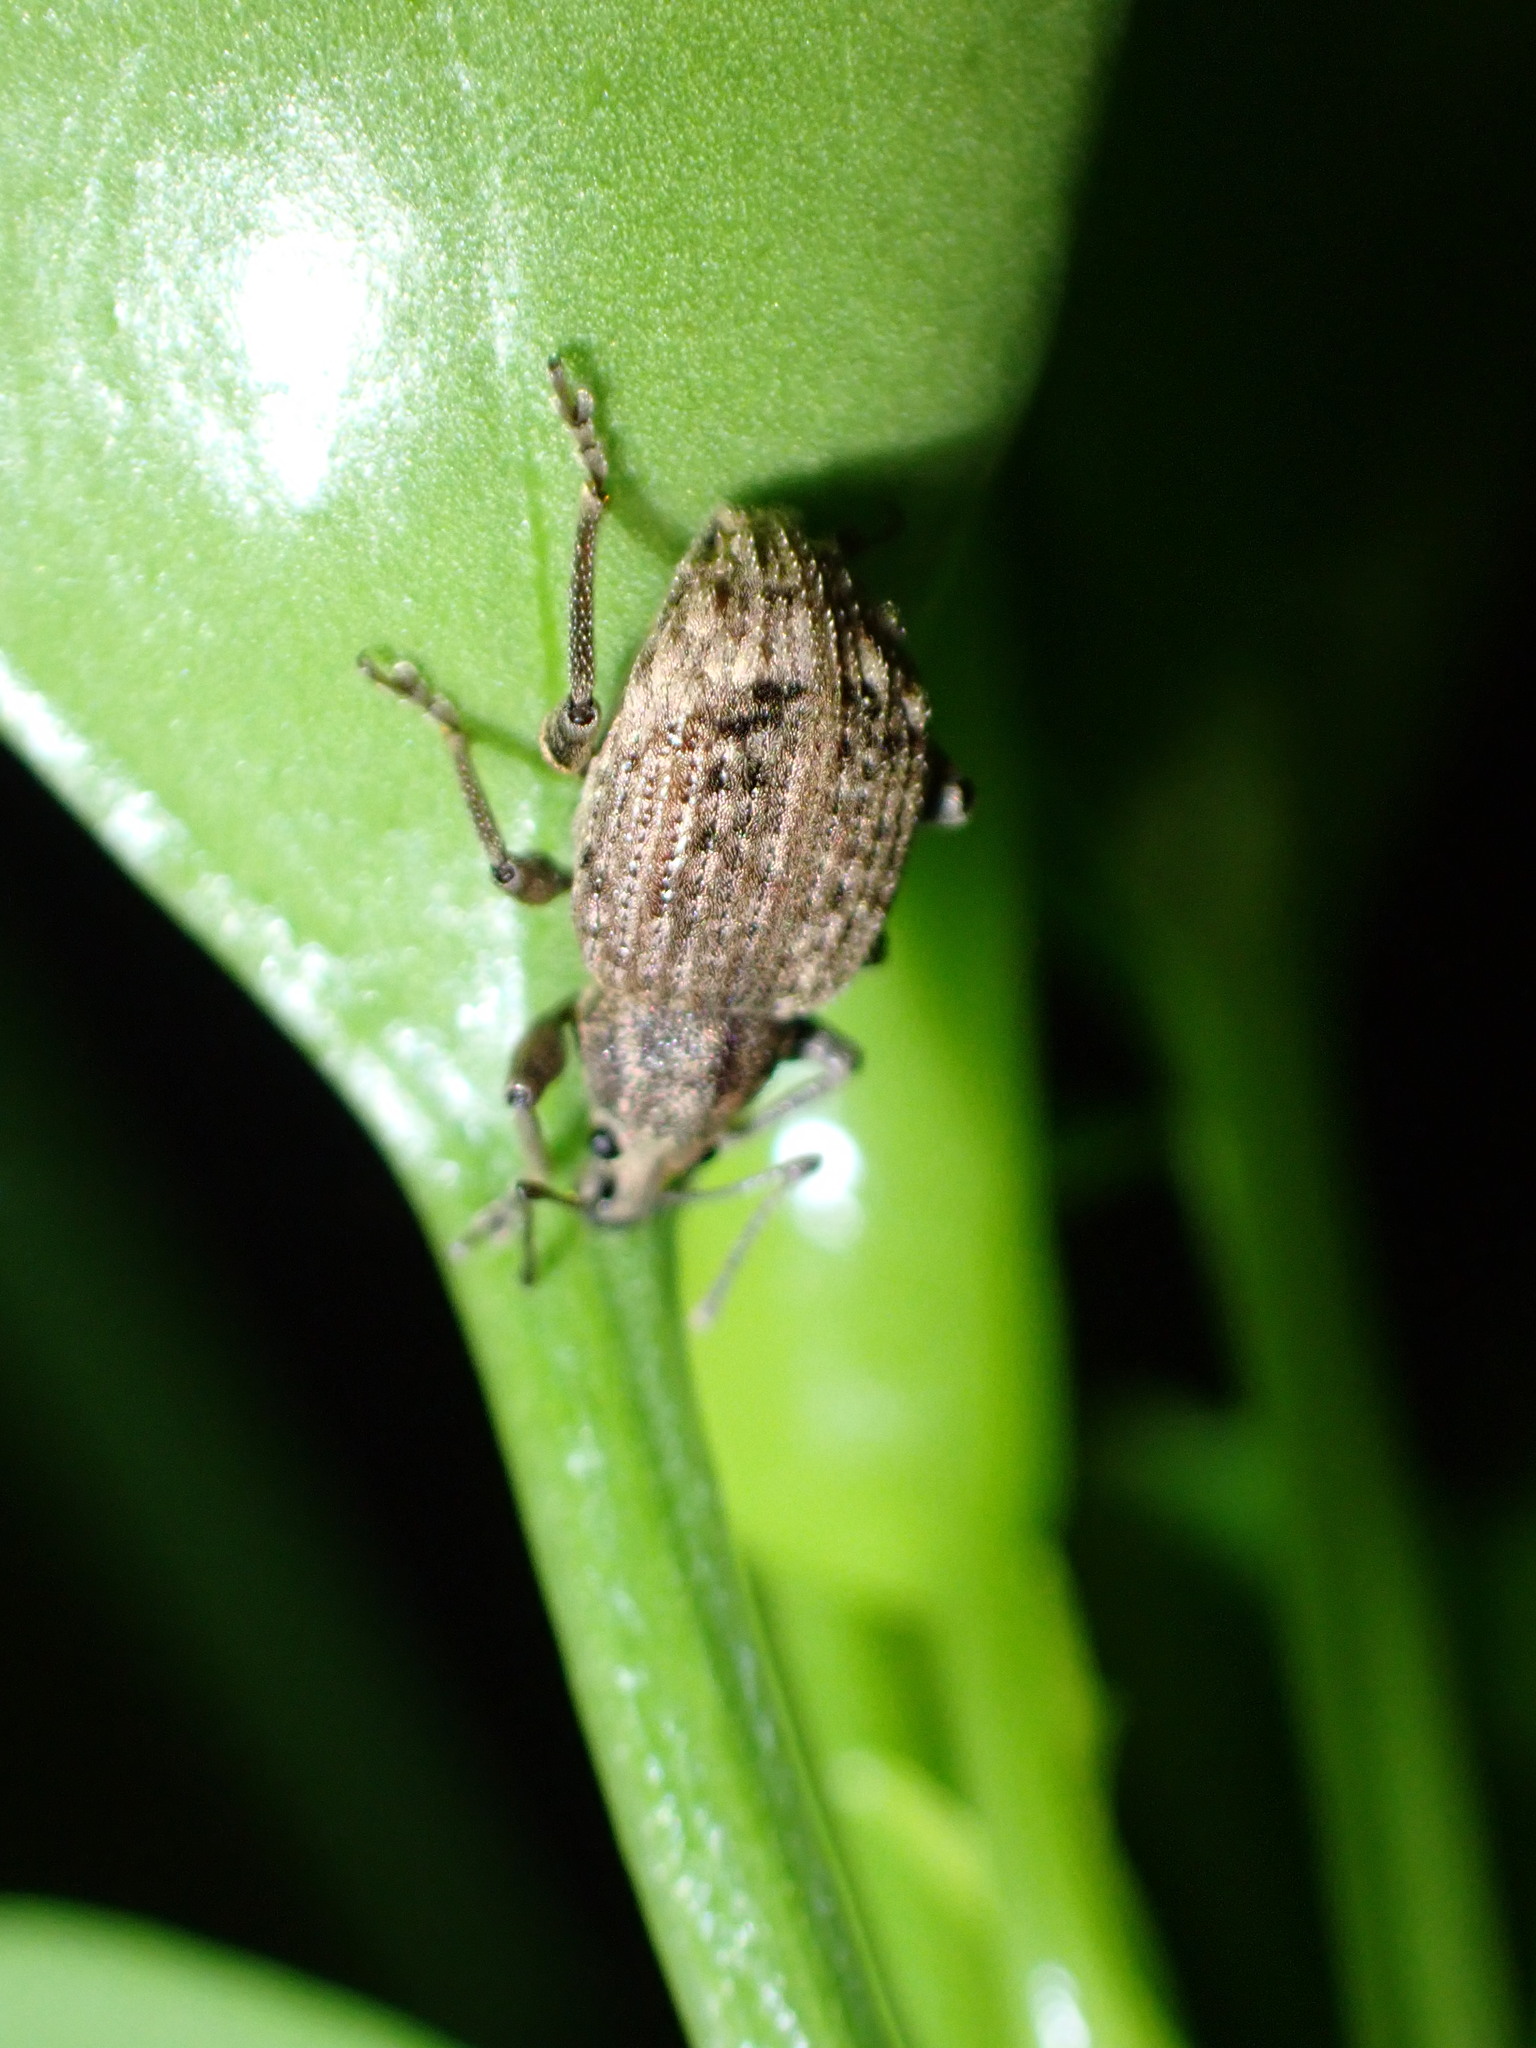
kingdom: Animalia
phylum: Arthropoda
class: Insecta
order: Coleoptera
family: Curculionidae
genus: Phlyctinus
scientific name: Phlyctinus callosus
